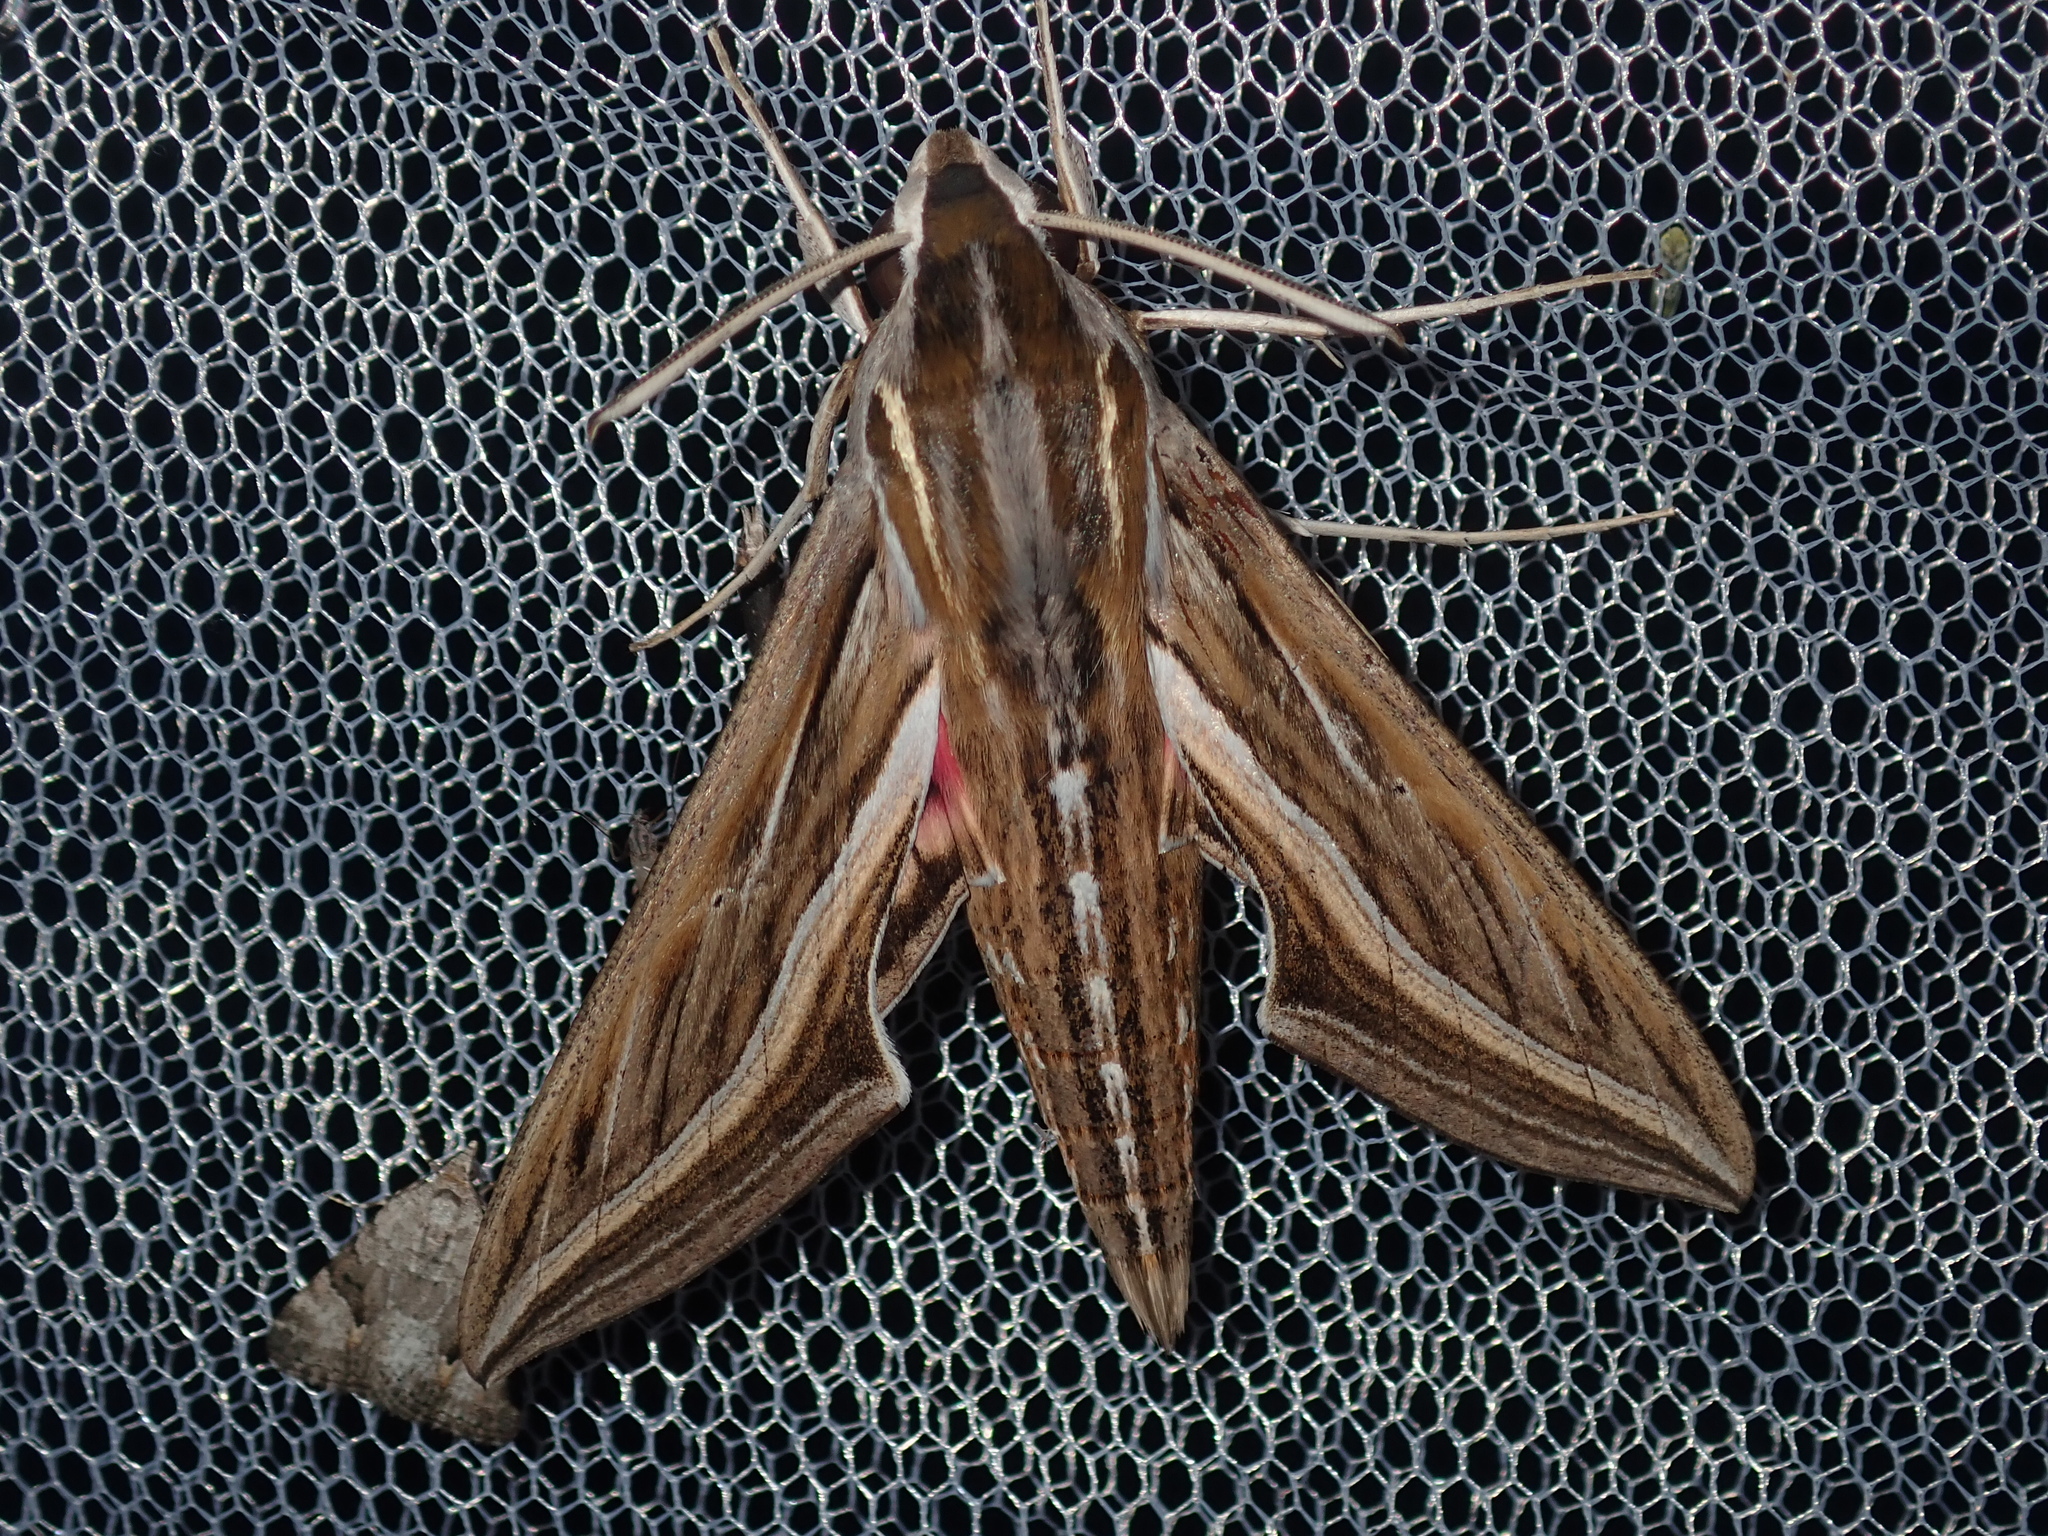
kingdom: Animalia
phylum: Arthropoda
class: Insecta
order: Lepidoptera
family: Sphingidae
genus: Hippotion
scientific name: Hippotion celerio
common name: Silver-striped hawk-moth
